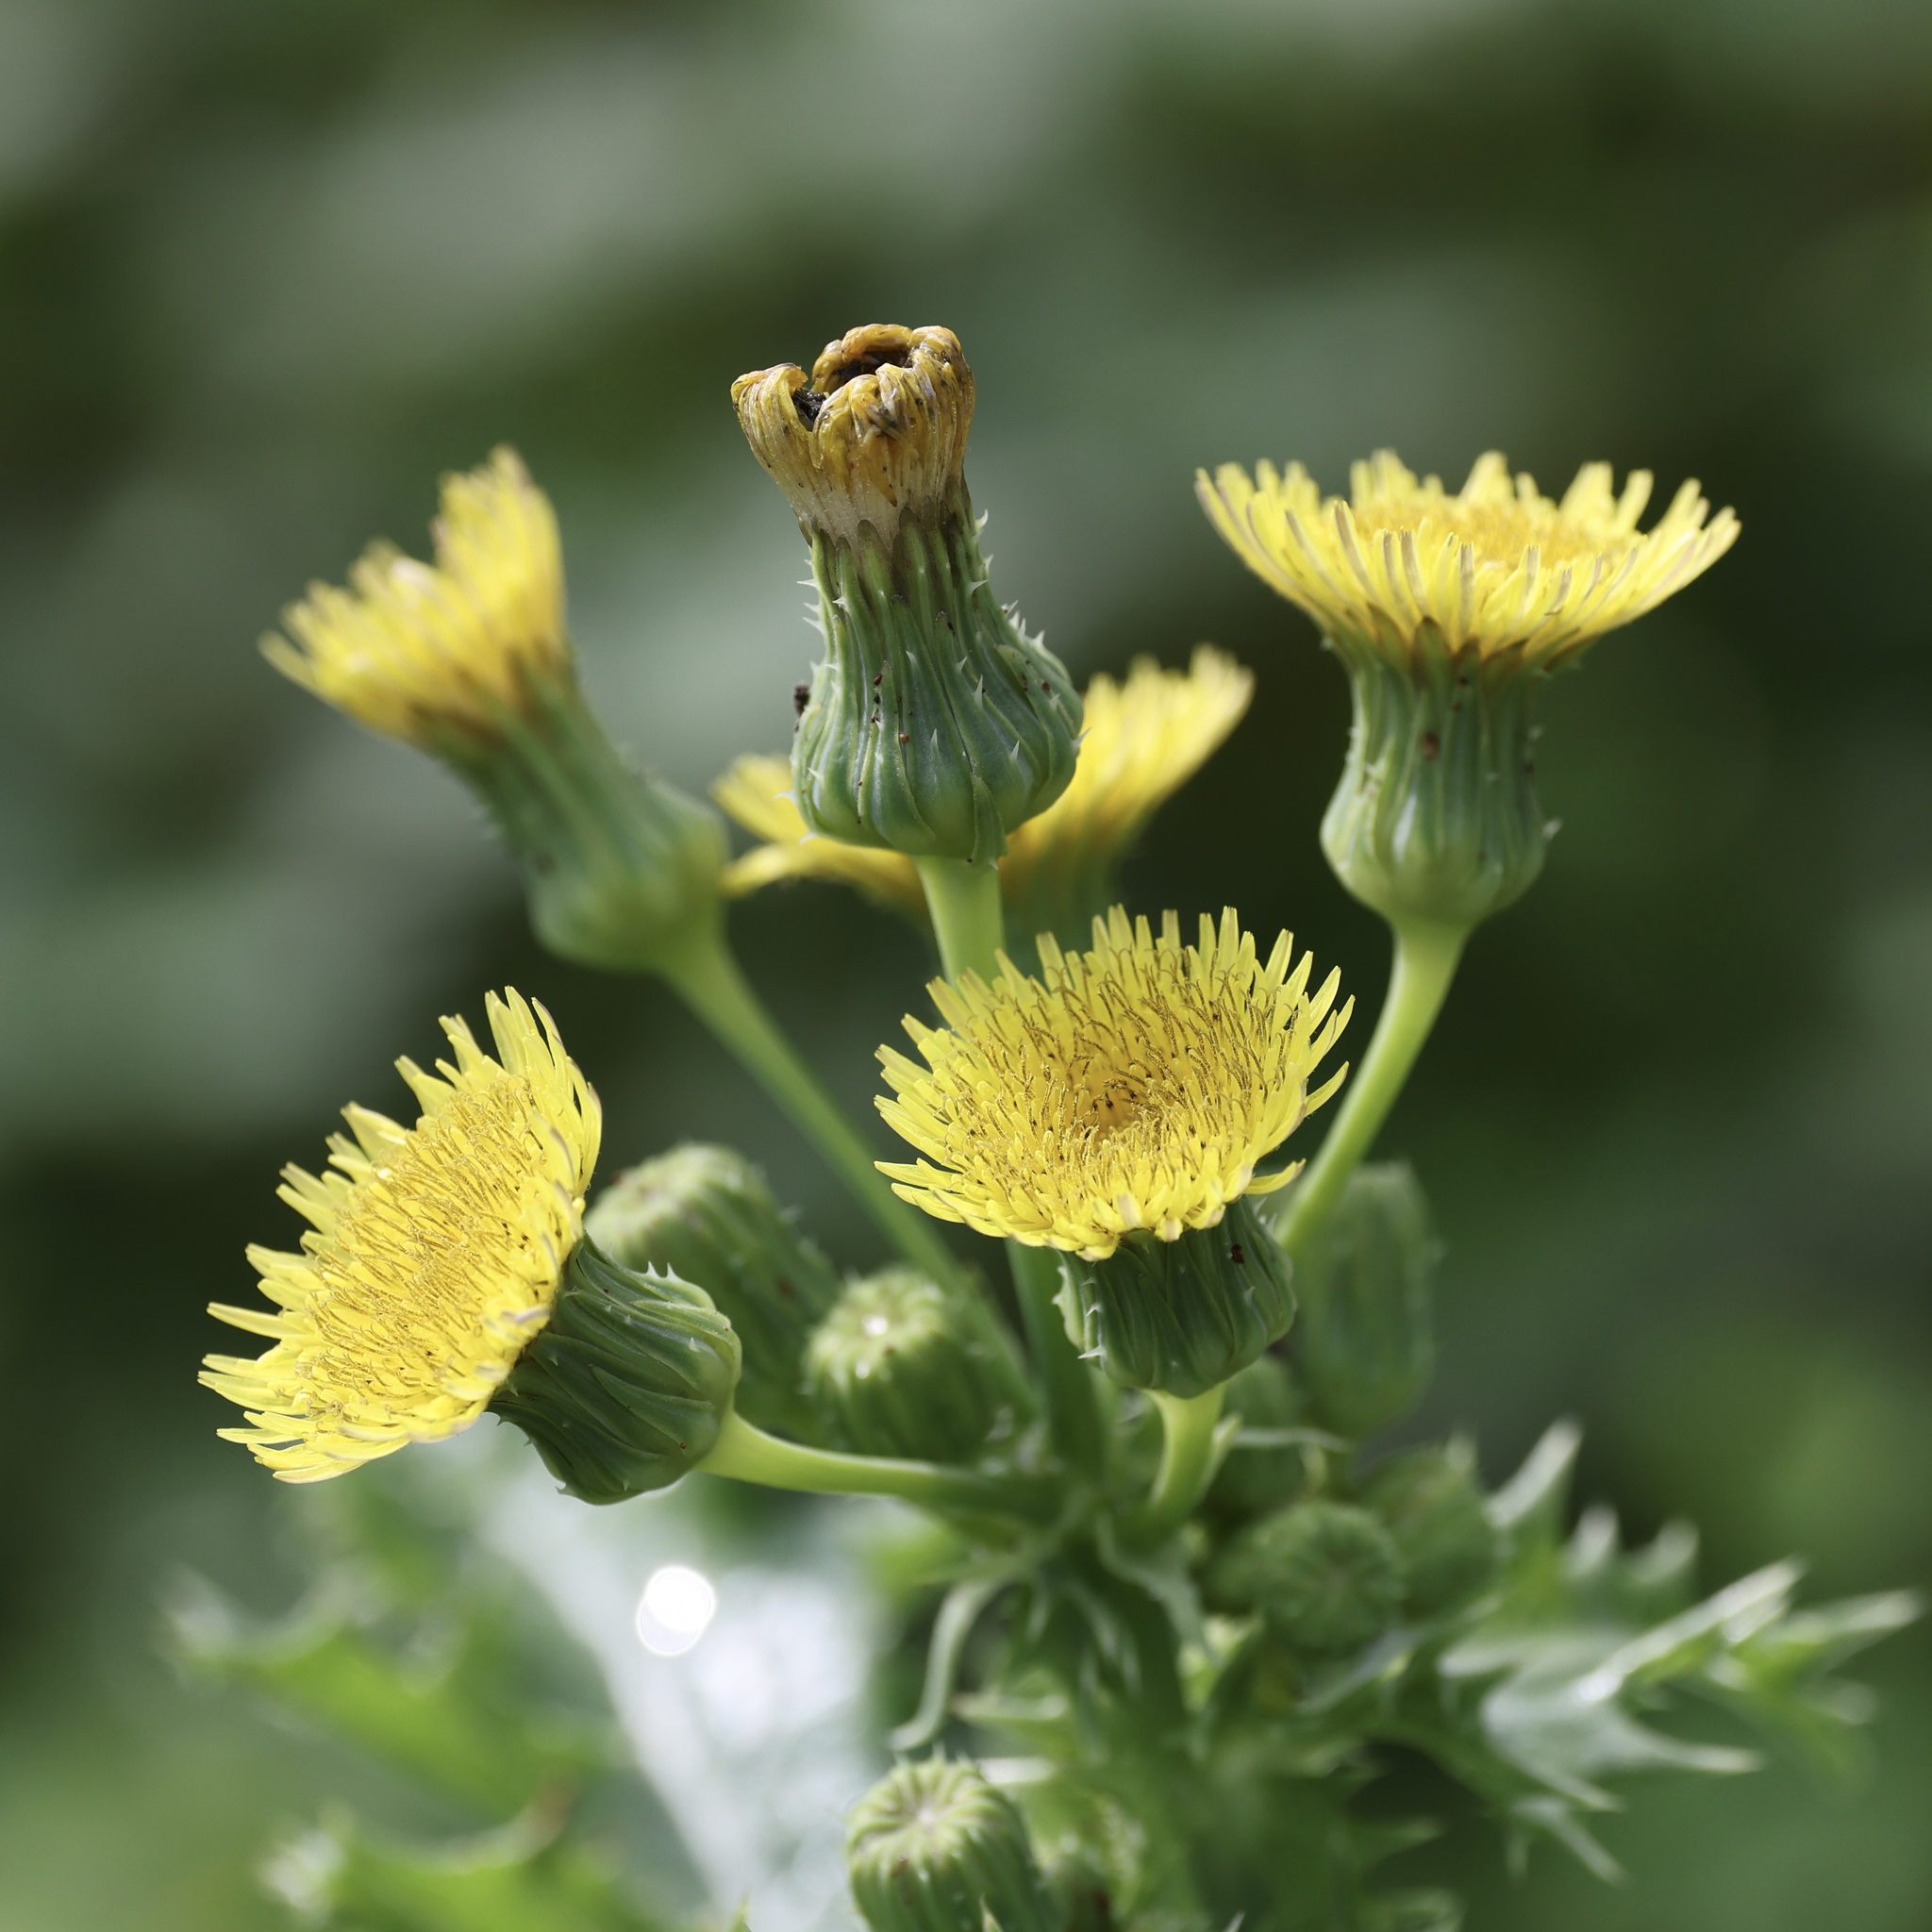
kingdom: Plantae
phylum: Tracheophyta
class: Magnoliopsida
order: Asterales
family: Asteraceae
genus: Sonchus
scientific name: Sonchus asper
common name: Prickly sow-thistle
